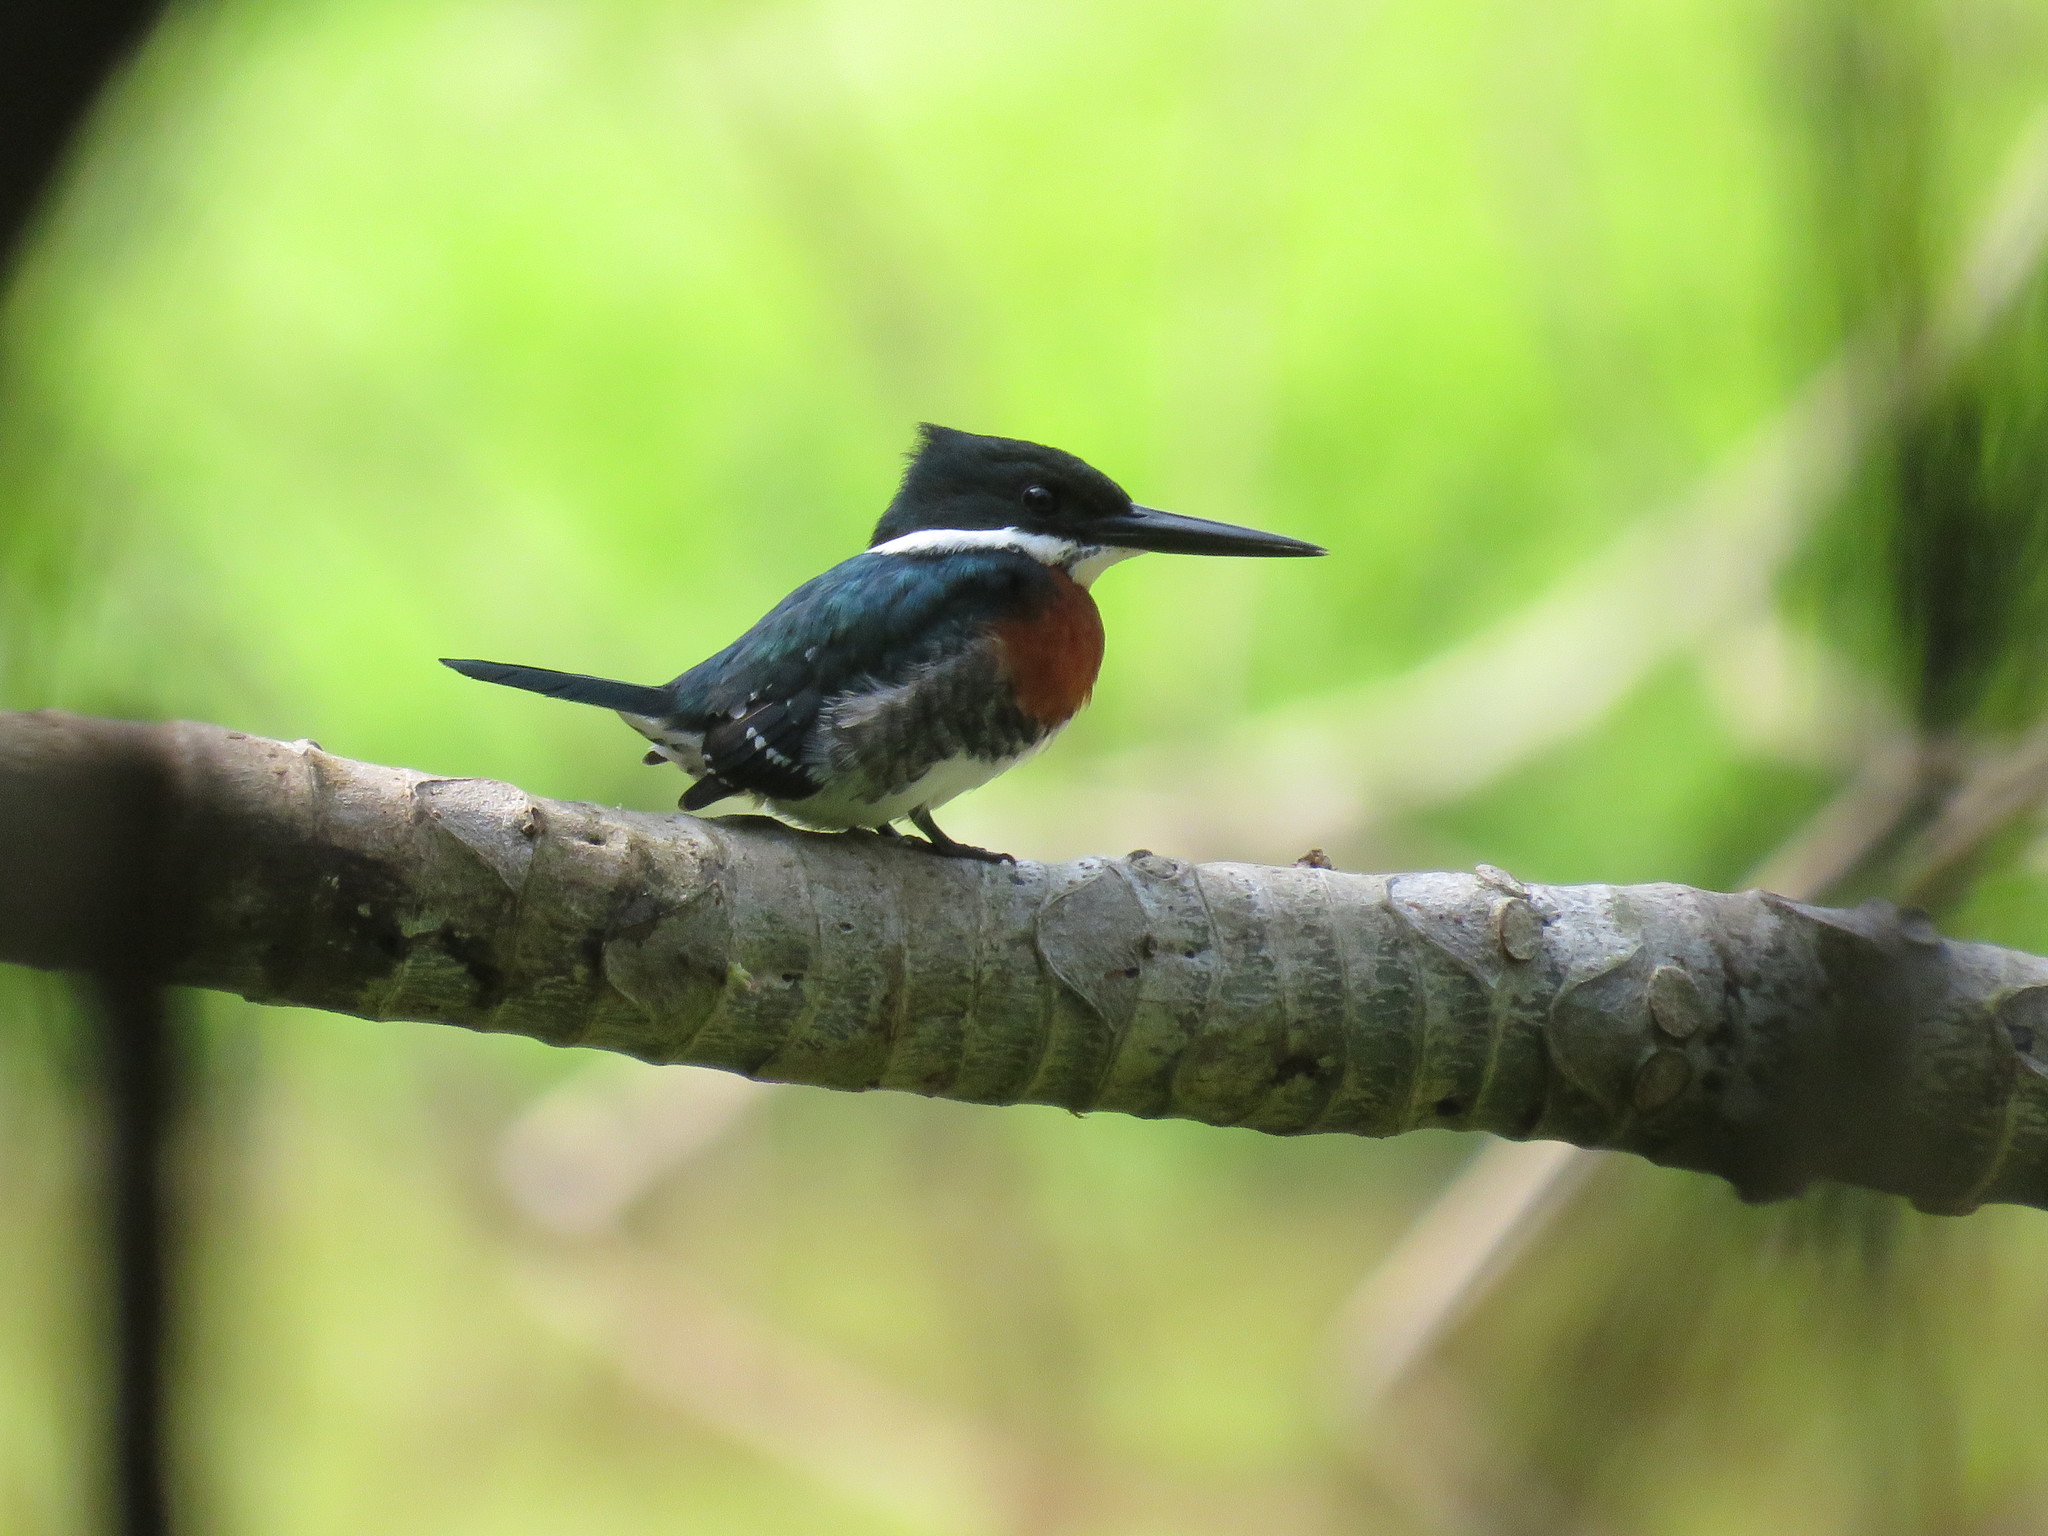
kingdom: Animalia
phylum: Chordata
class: Aves
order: Coraciiformes
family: Alcedinidae
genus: Chloroceryle
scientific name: Chloroceryle americana
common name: Green kingfisher
